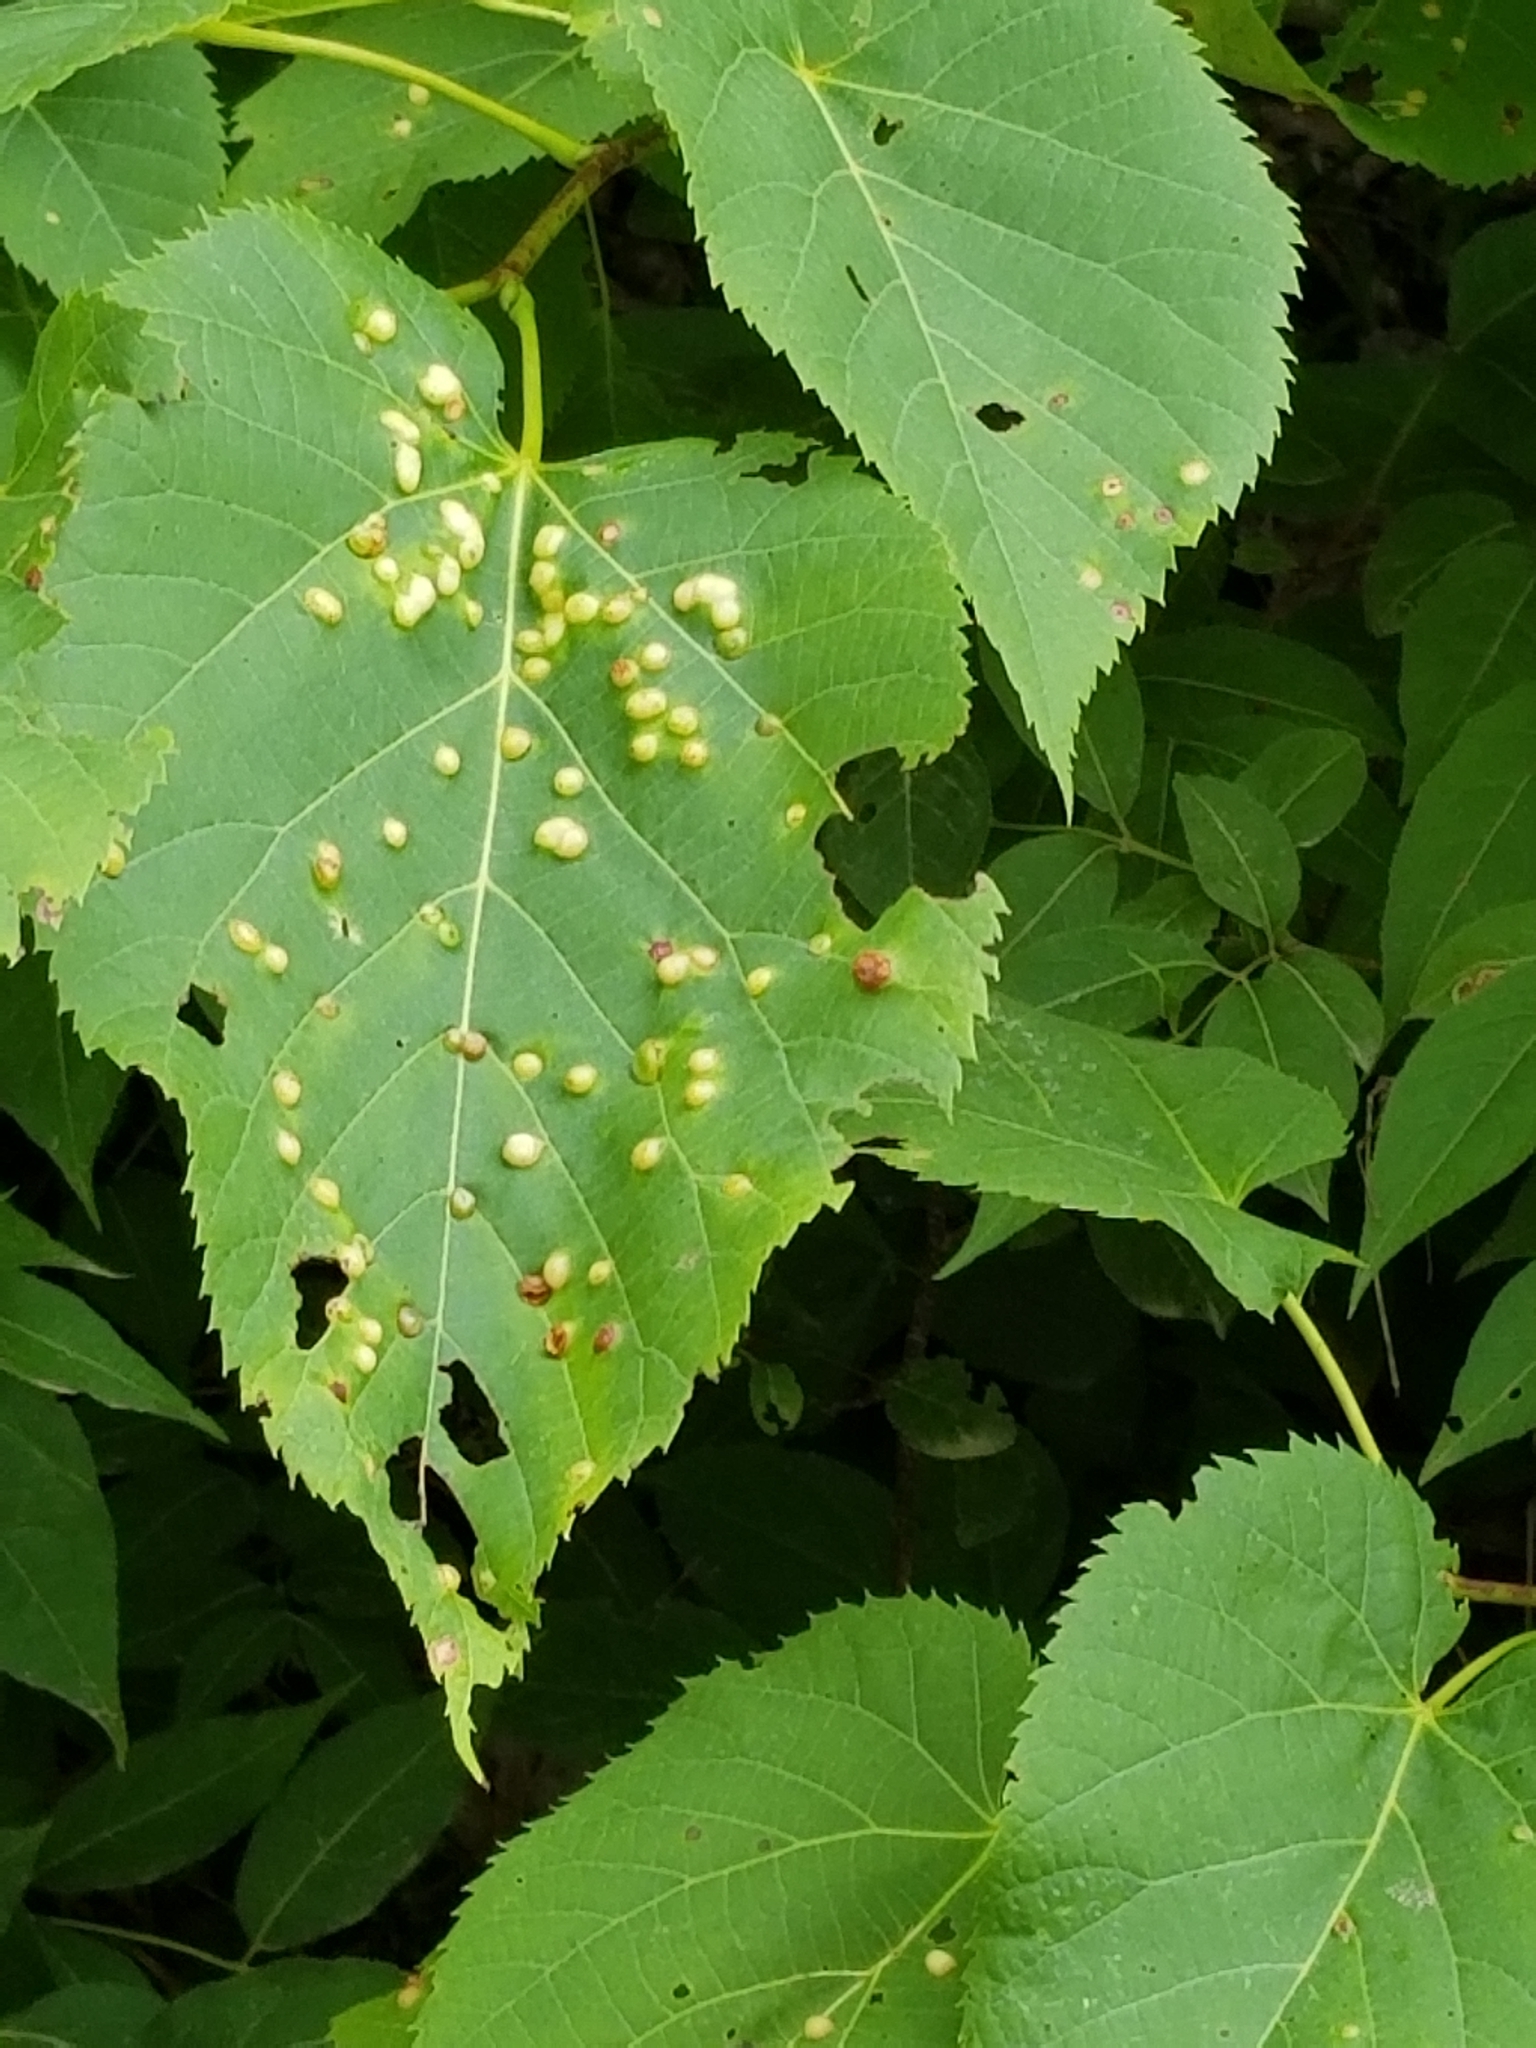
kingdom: Animalia
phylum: Arthropoda
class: Insecta
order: Diptera
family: Cecidomyiidae
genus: Contarinia
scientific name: Contarinia verrucicola
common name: Linden wart gall midge
